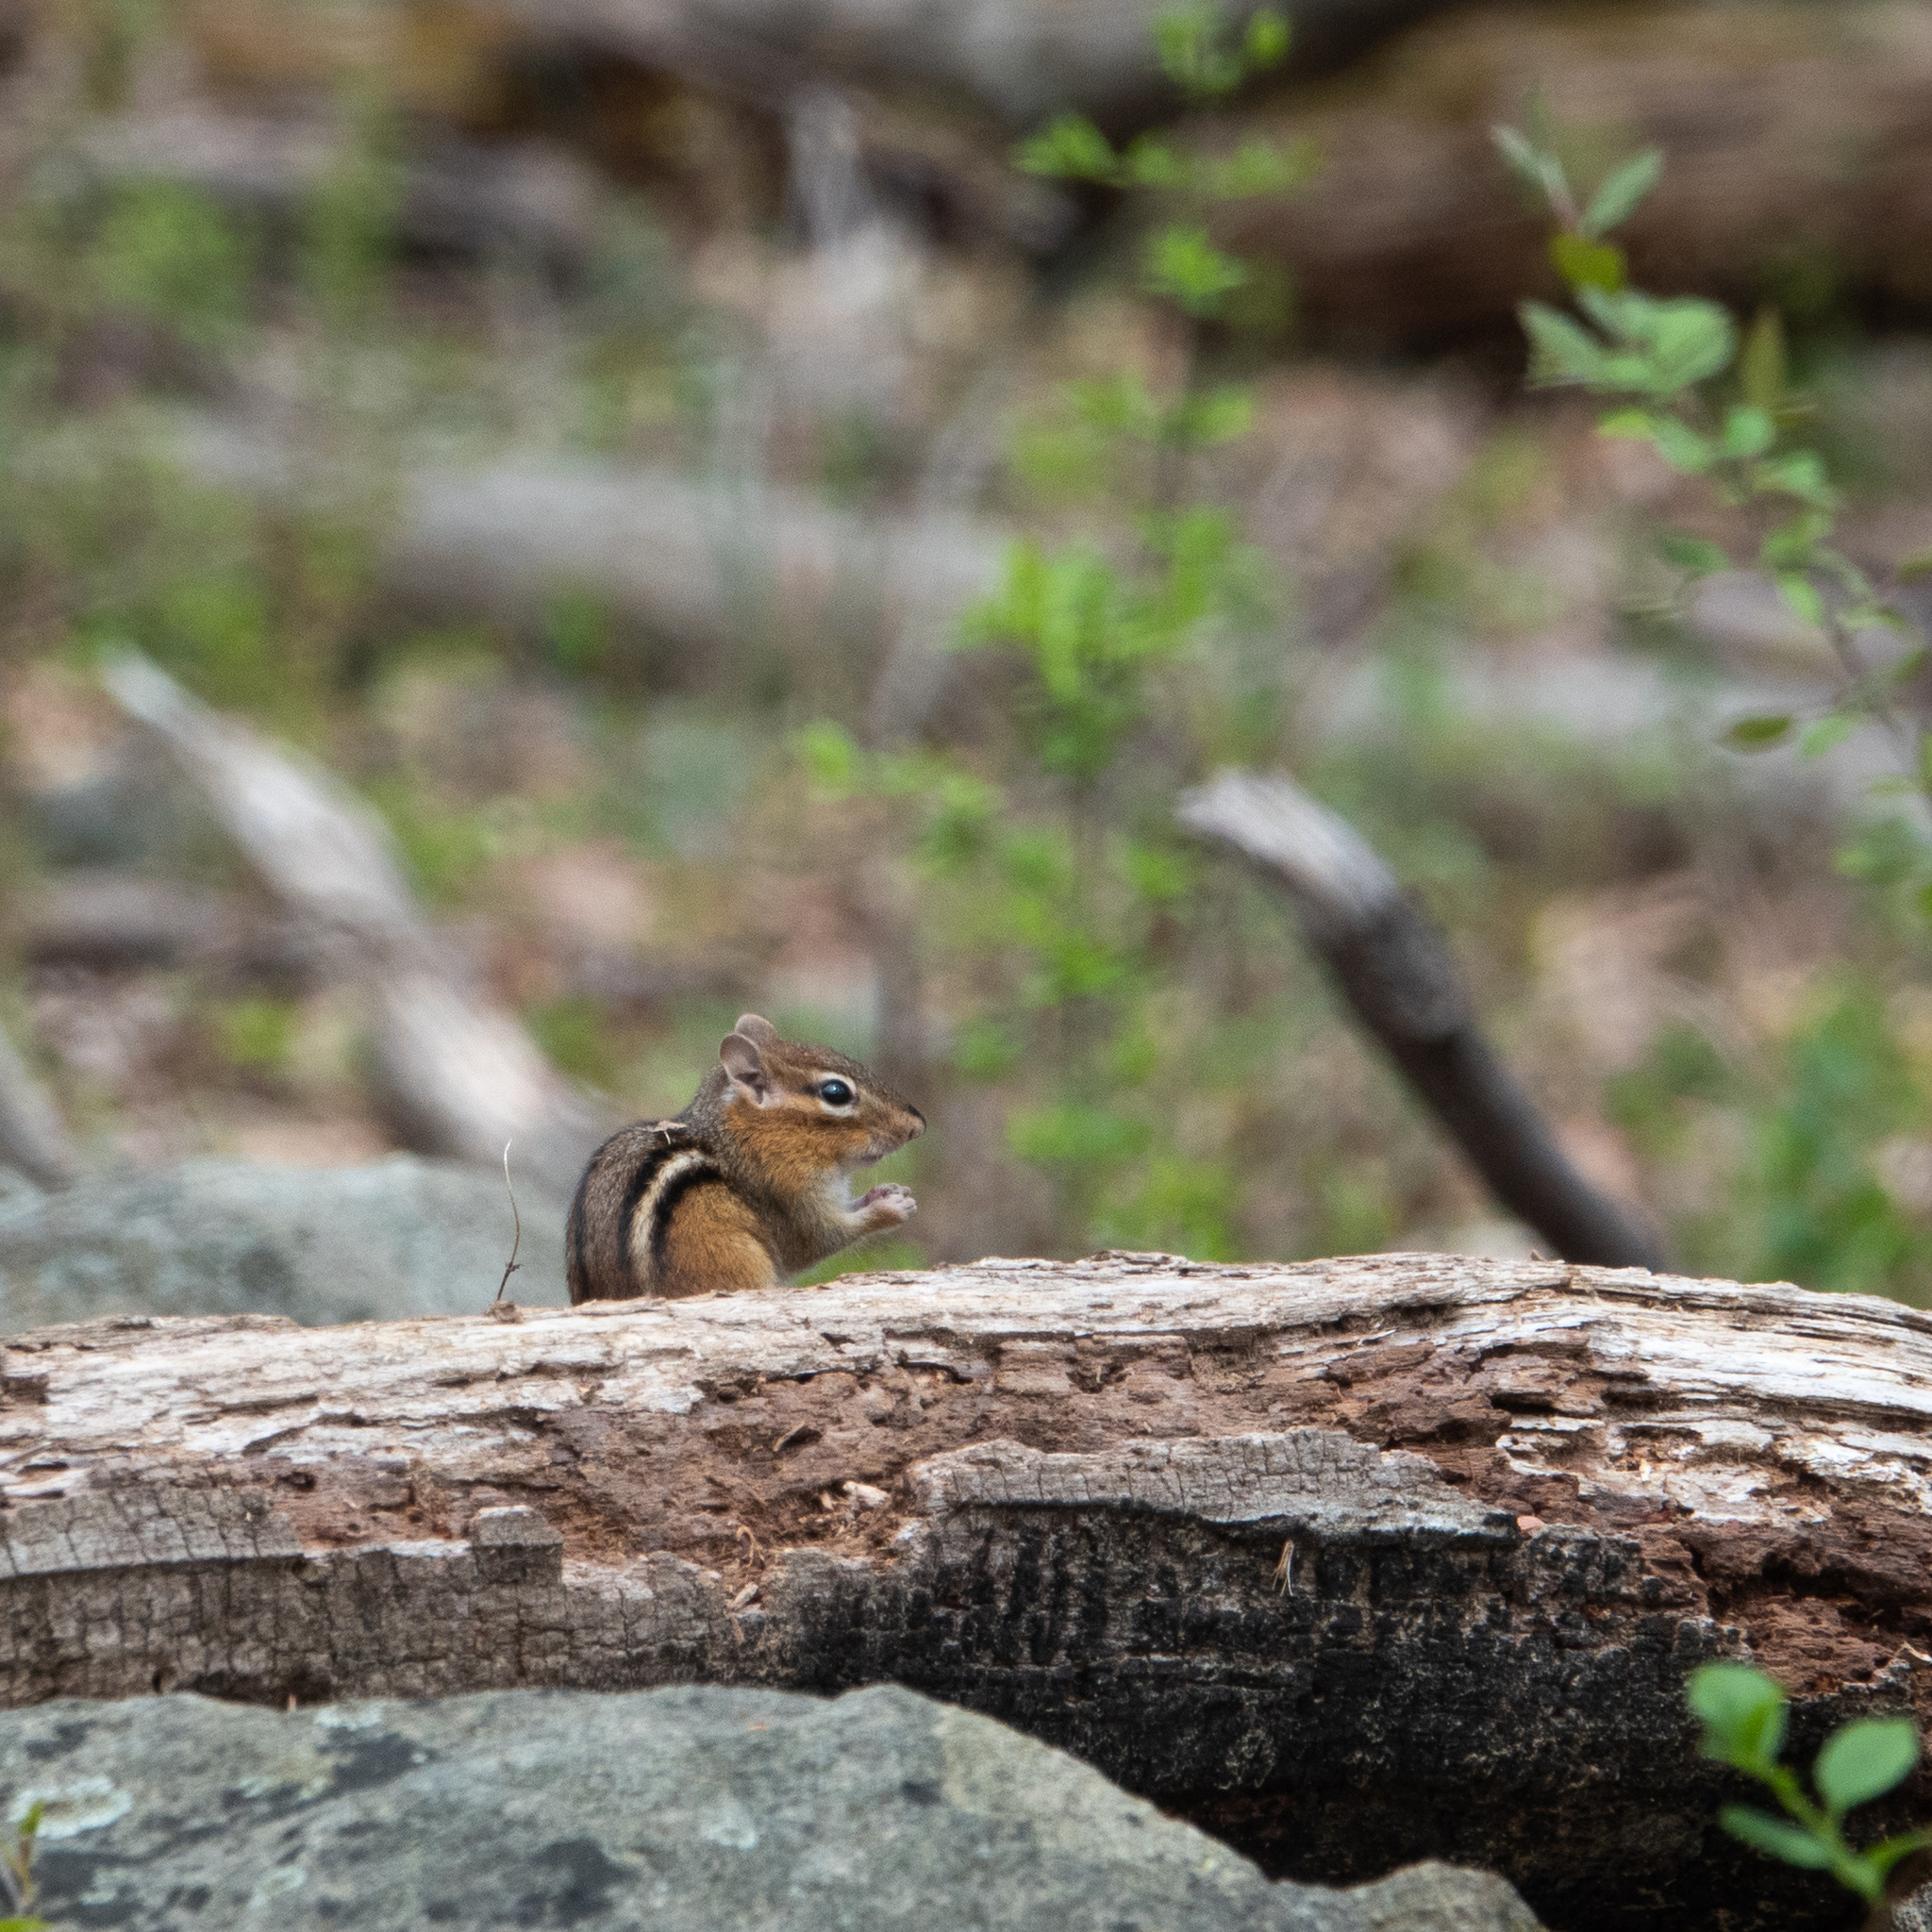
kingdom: Animalia
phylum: Chordata
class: Mammalia
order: Rodentia
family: Sciuridae
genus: Tamias
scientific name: Tamias striatus
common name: Eastern chipmunk
